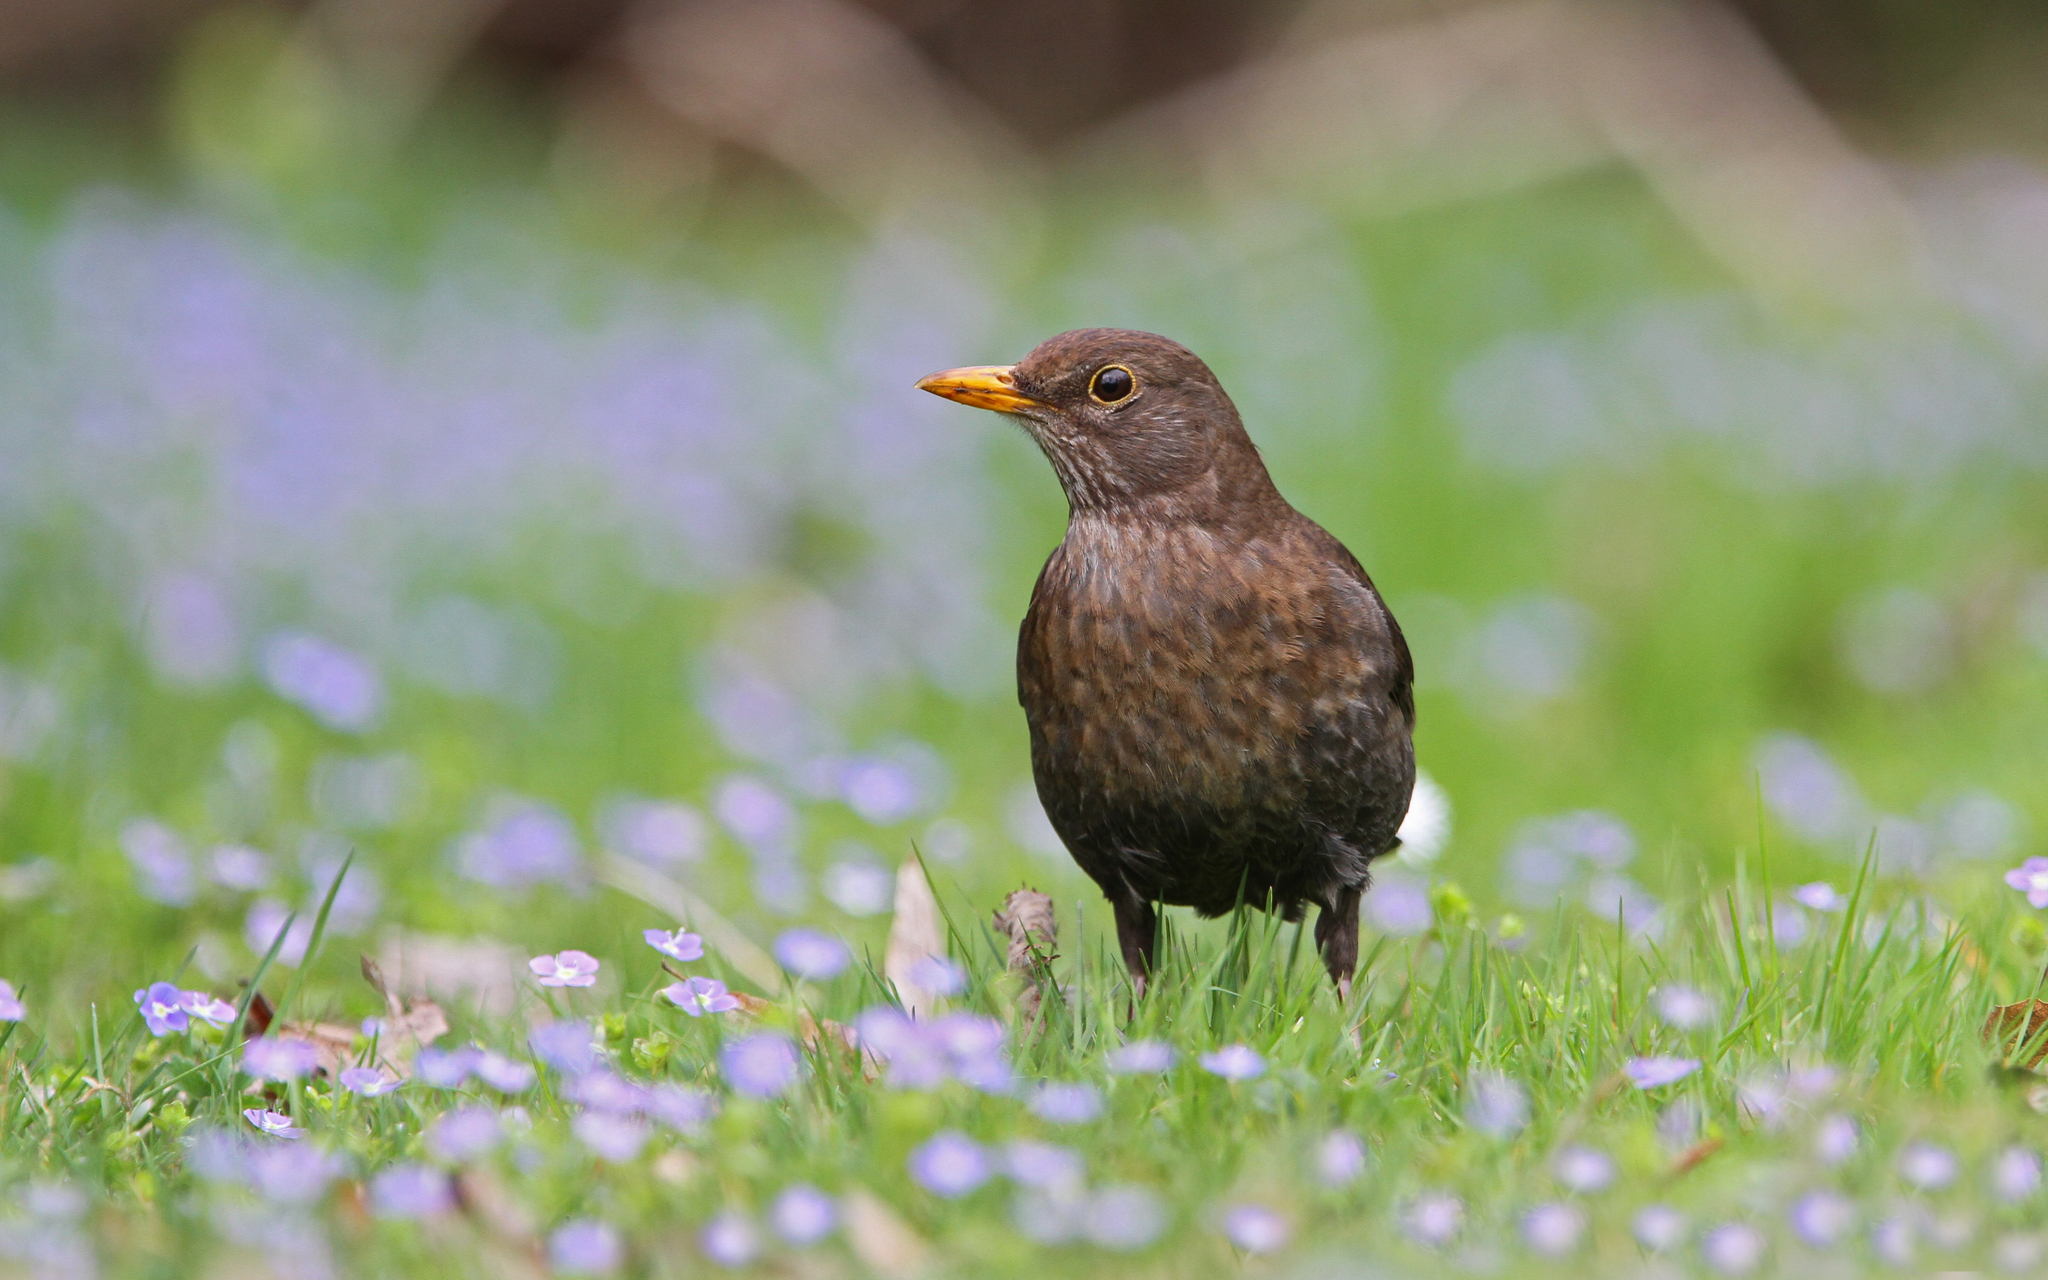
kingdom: Animalia
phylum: Chordata
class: Aves
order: Passeriformes
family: Turdidae
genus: Turdus
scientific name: Turdus merula
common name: Common blackbird
